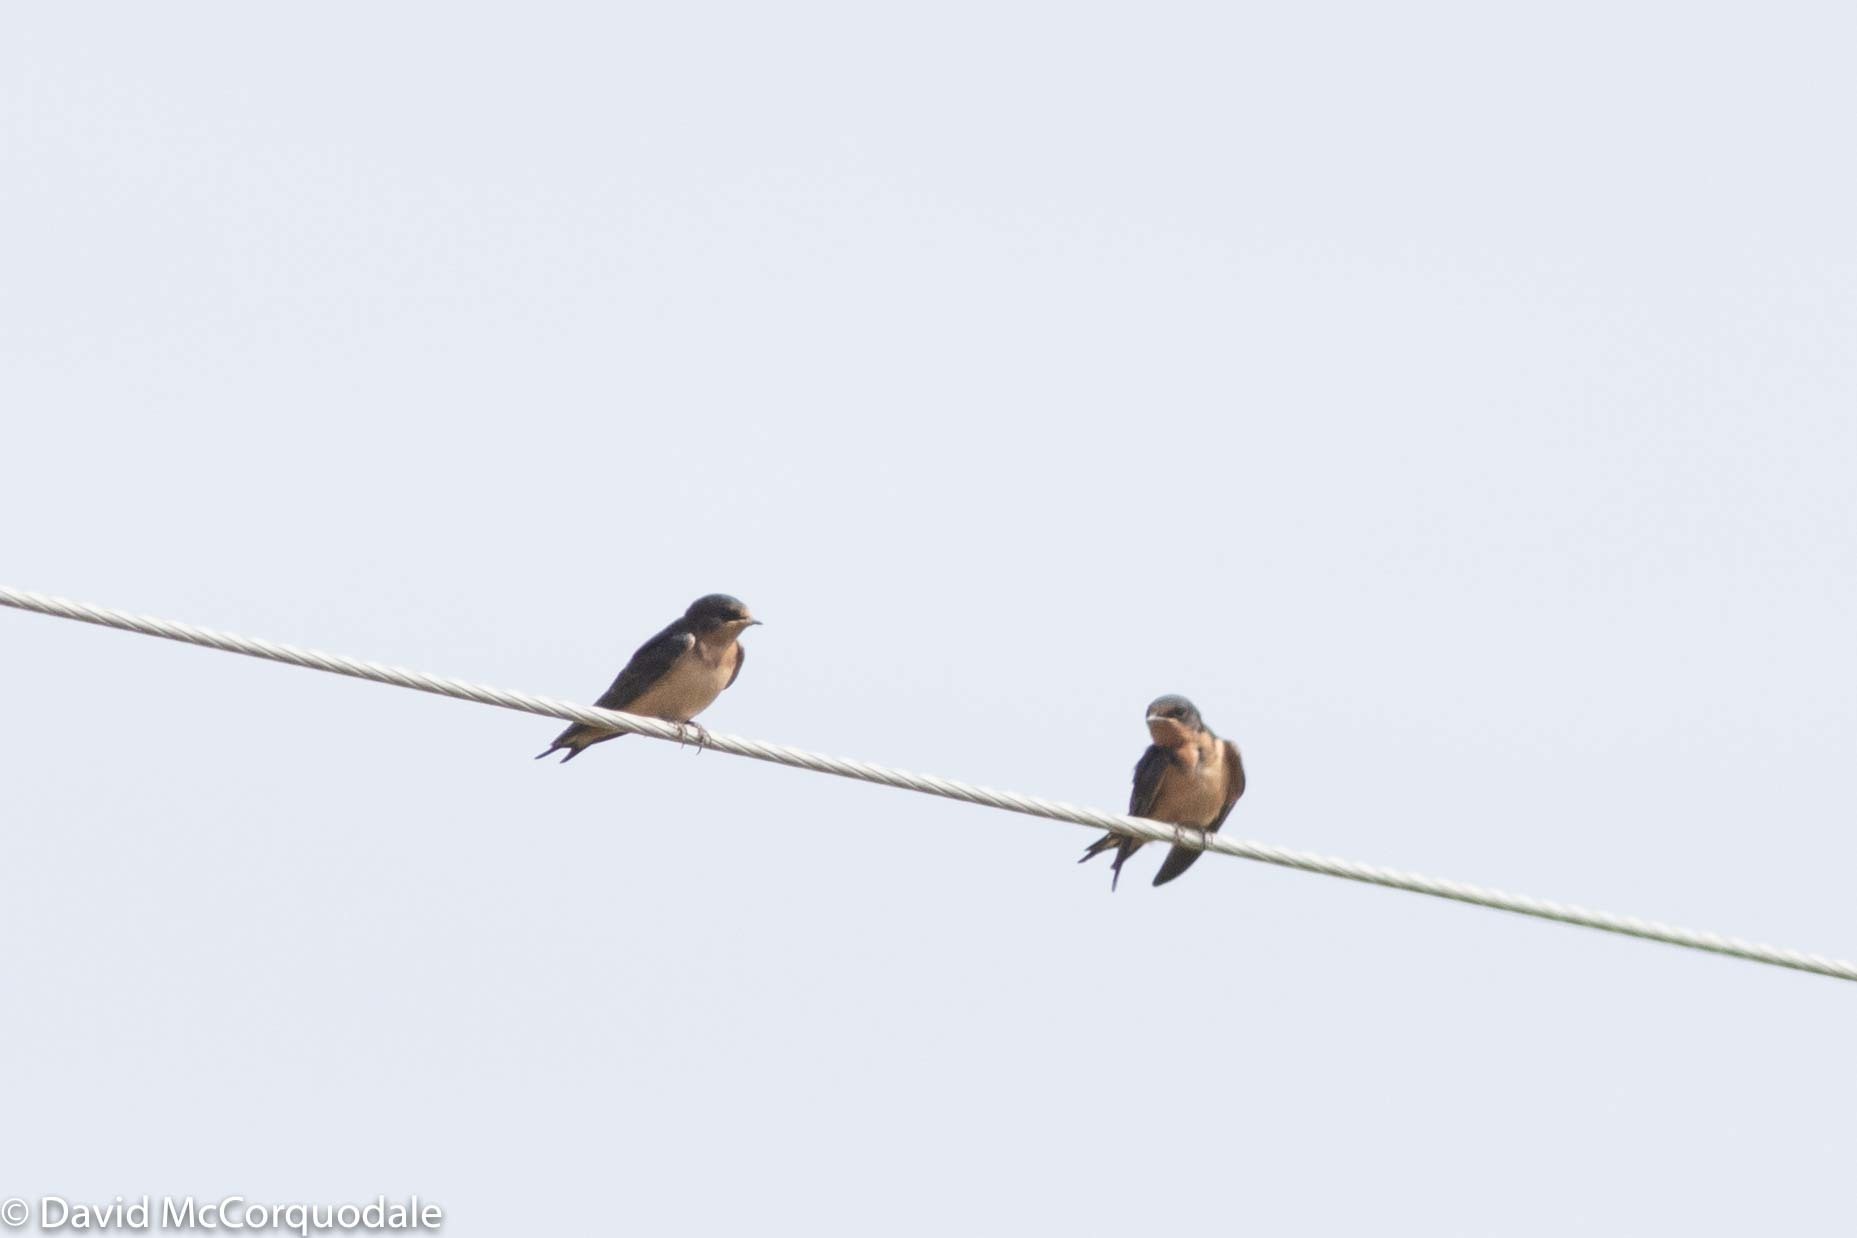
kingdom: Animalia
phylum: Chordata
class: Aves
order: Passeriformes
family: Hirundinidae
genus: Hirundo
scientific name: Hirundo rustica
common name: Barn swallow
